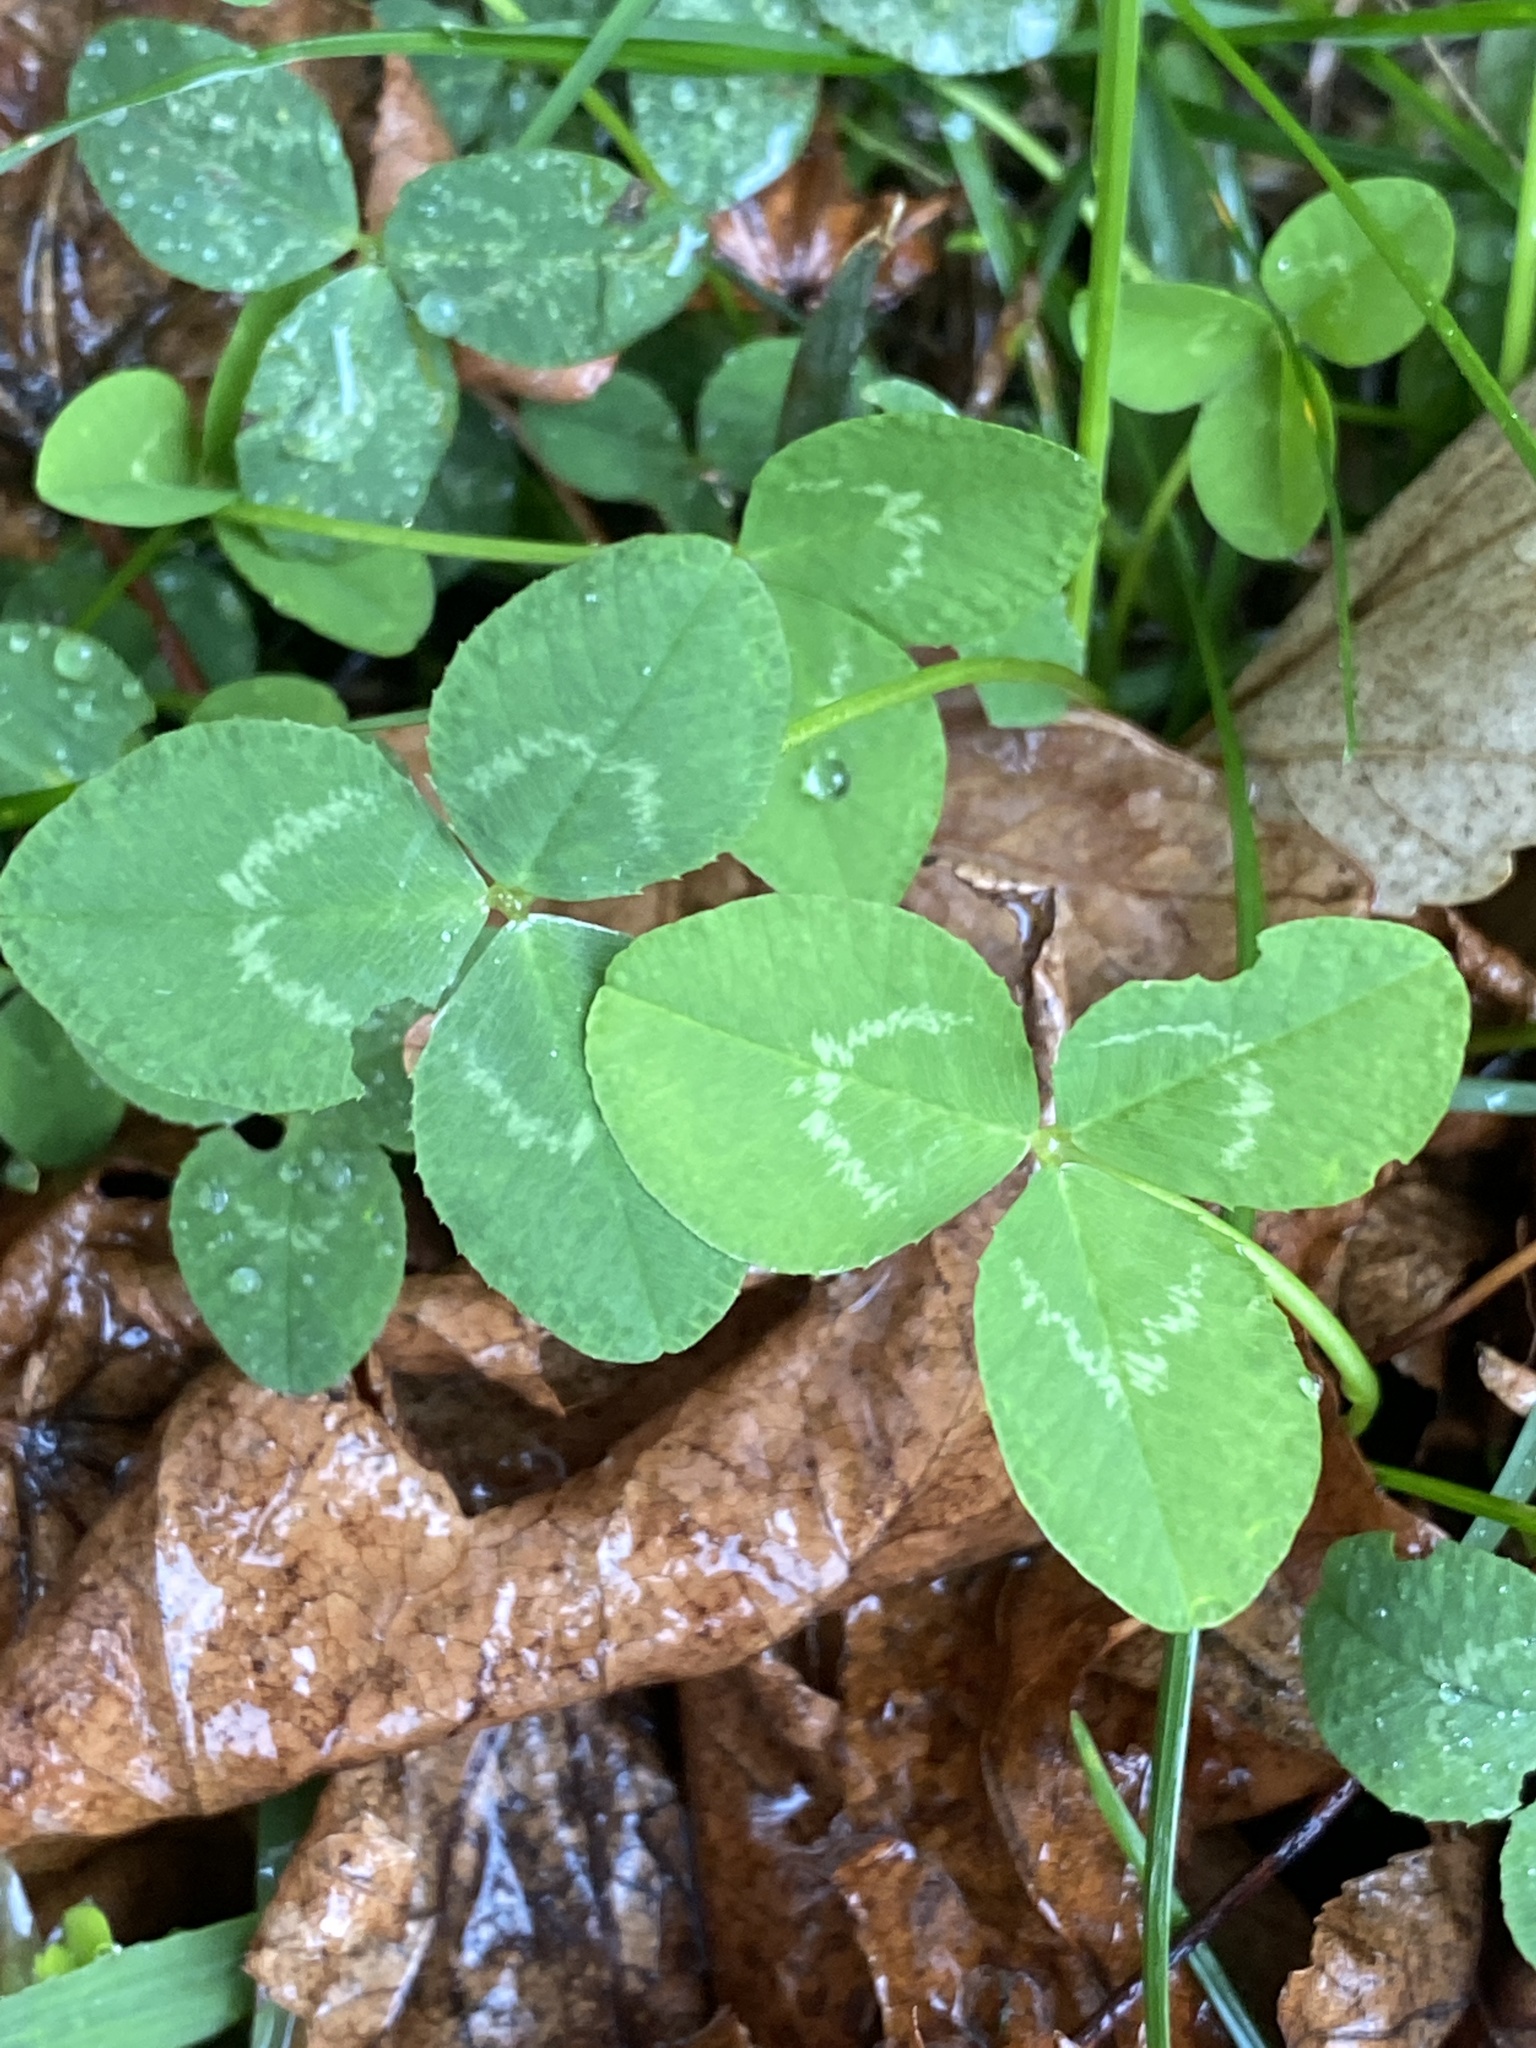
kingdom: Plantae
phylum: Tracheophyta
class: Magnoliopsida
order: Fabales
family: Fabaceae
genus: Trifolium
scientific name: Trifolium repens
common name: White clover
